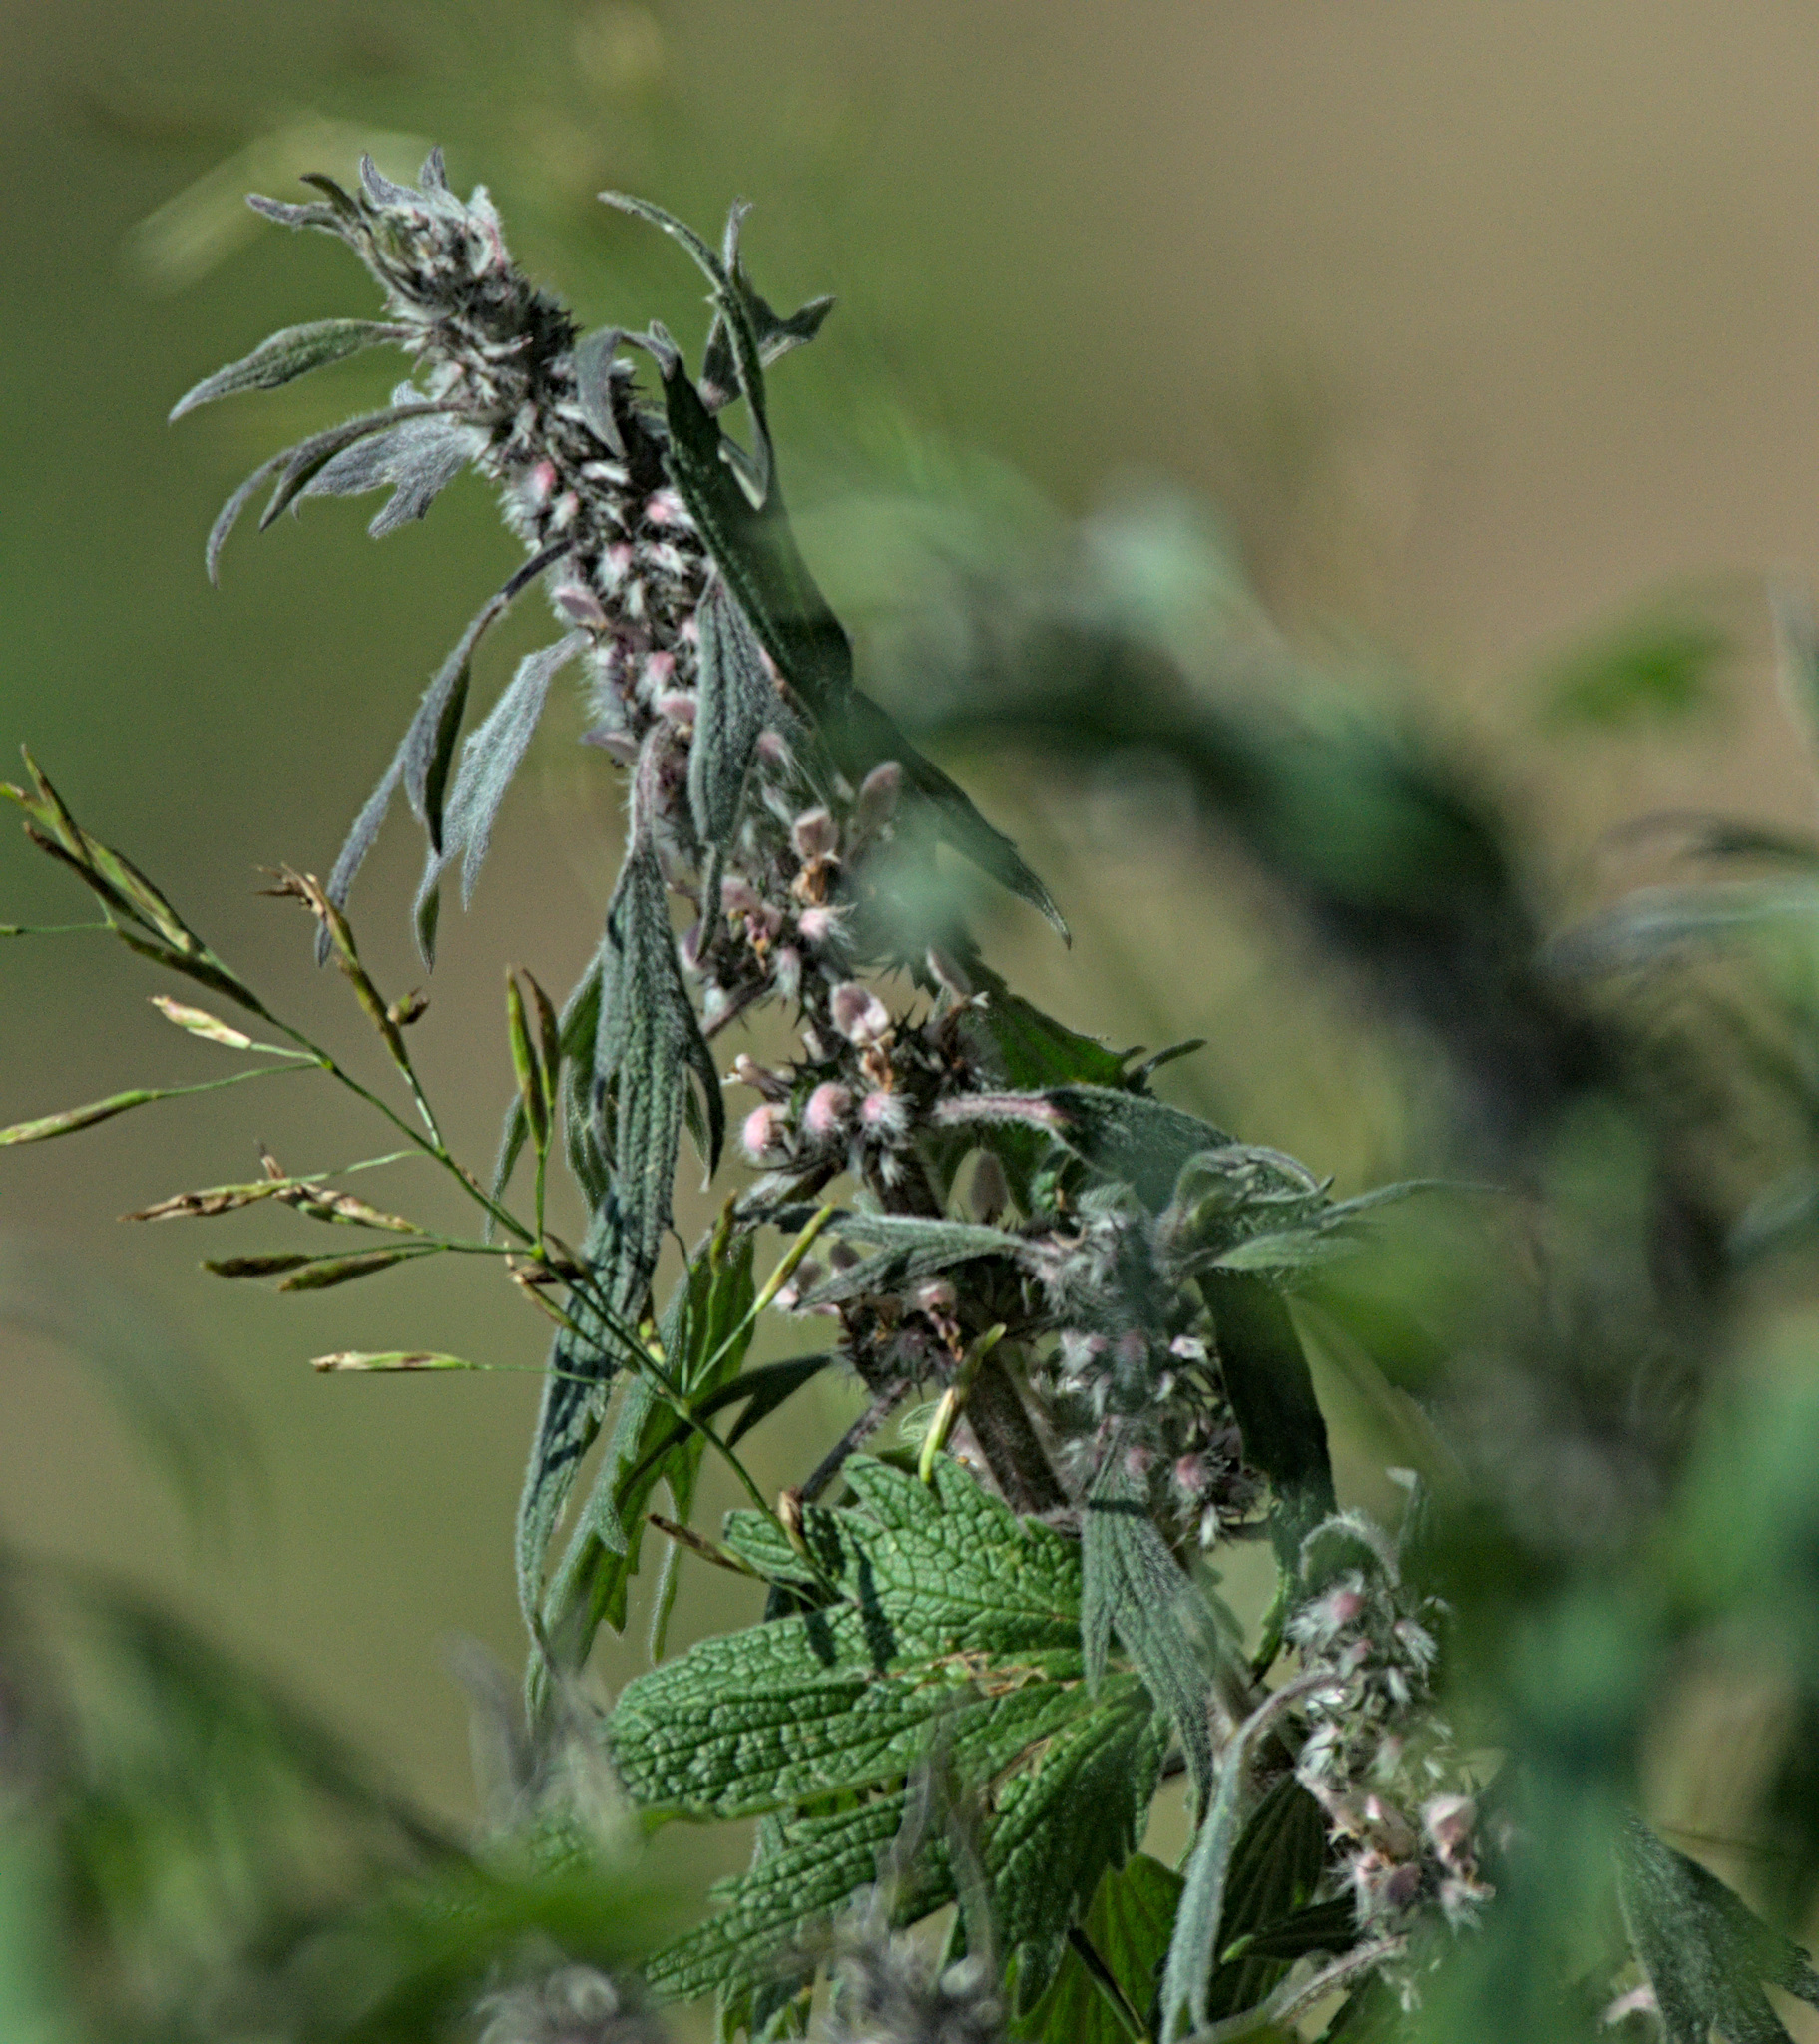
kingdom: Plantae
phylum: Tracheophyta
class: Magnoliopsida
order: Lamiales
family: Lamiaceae
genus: Leonurus
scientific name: Leonurus quinquelobatus
